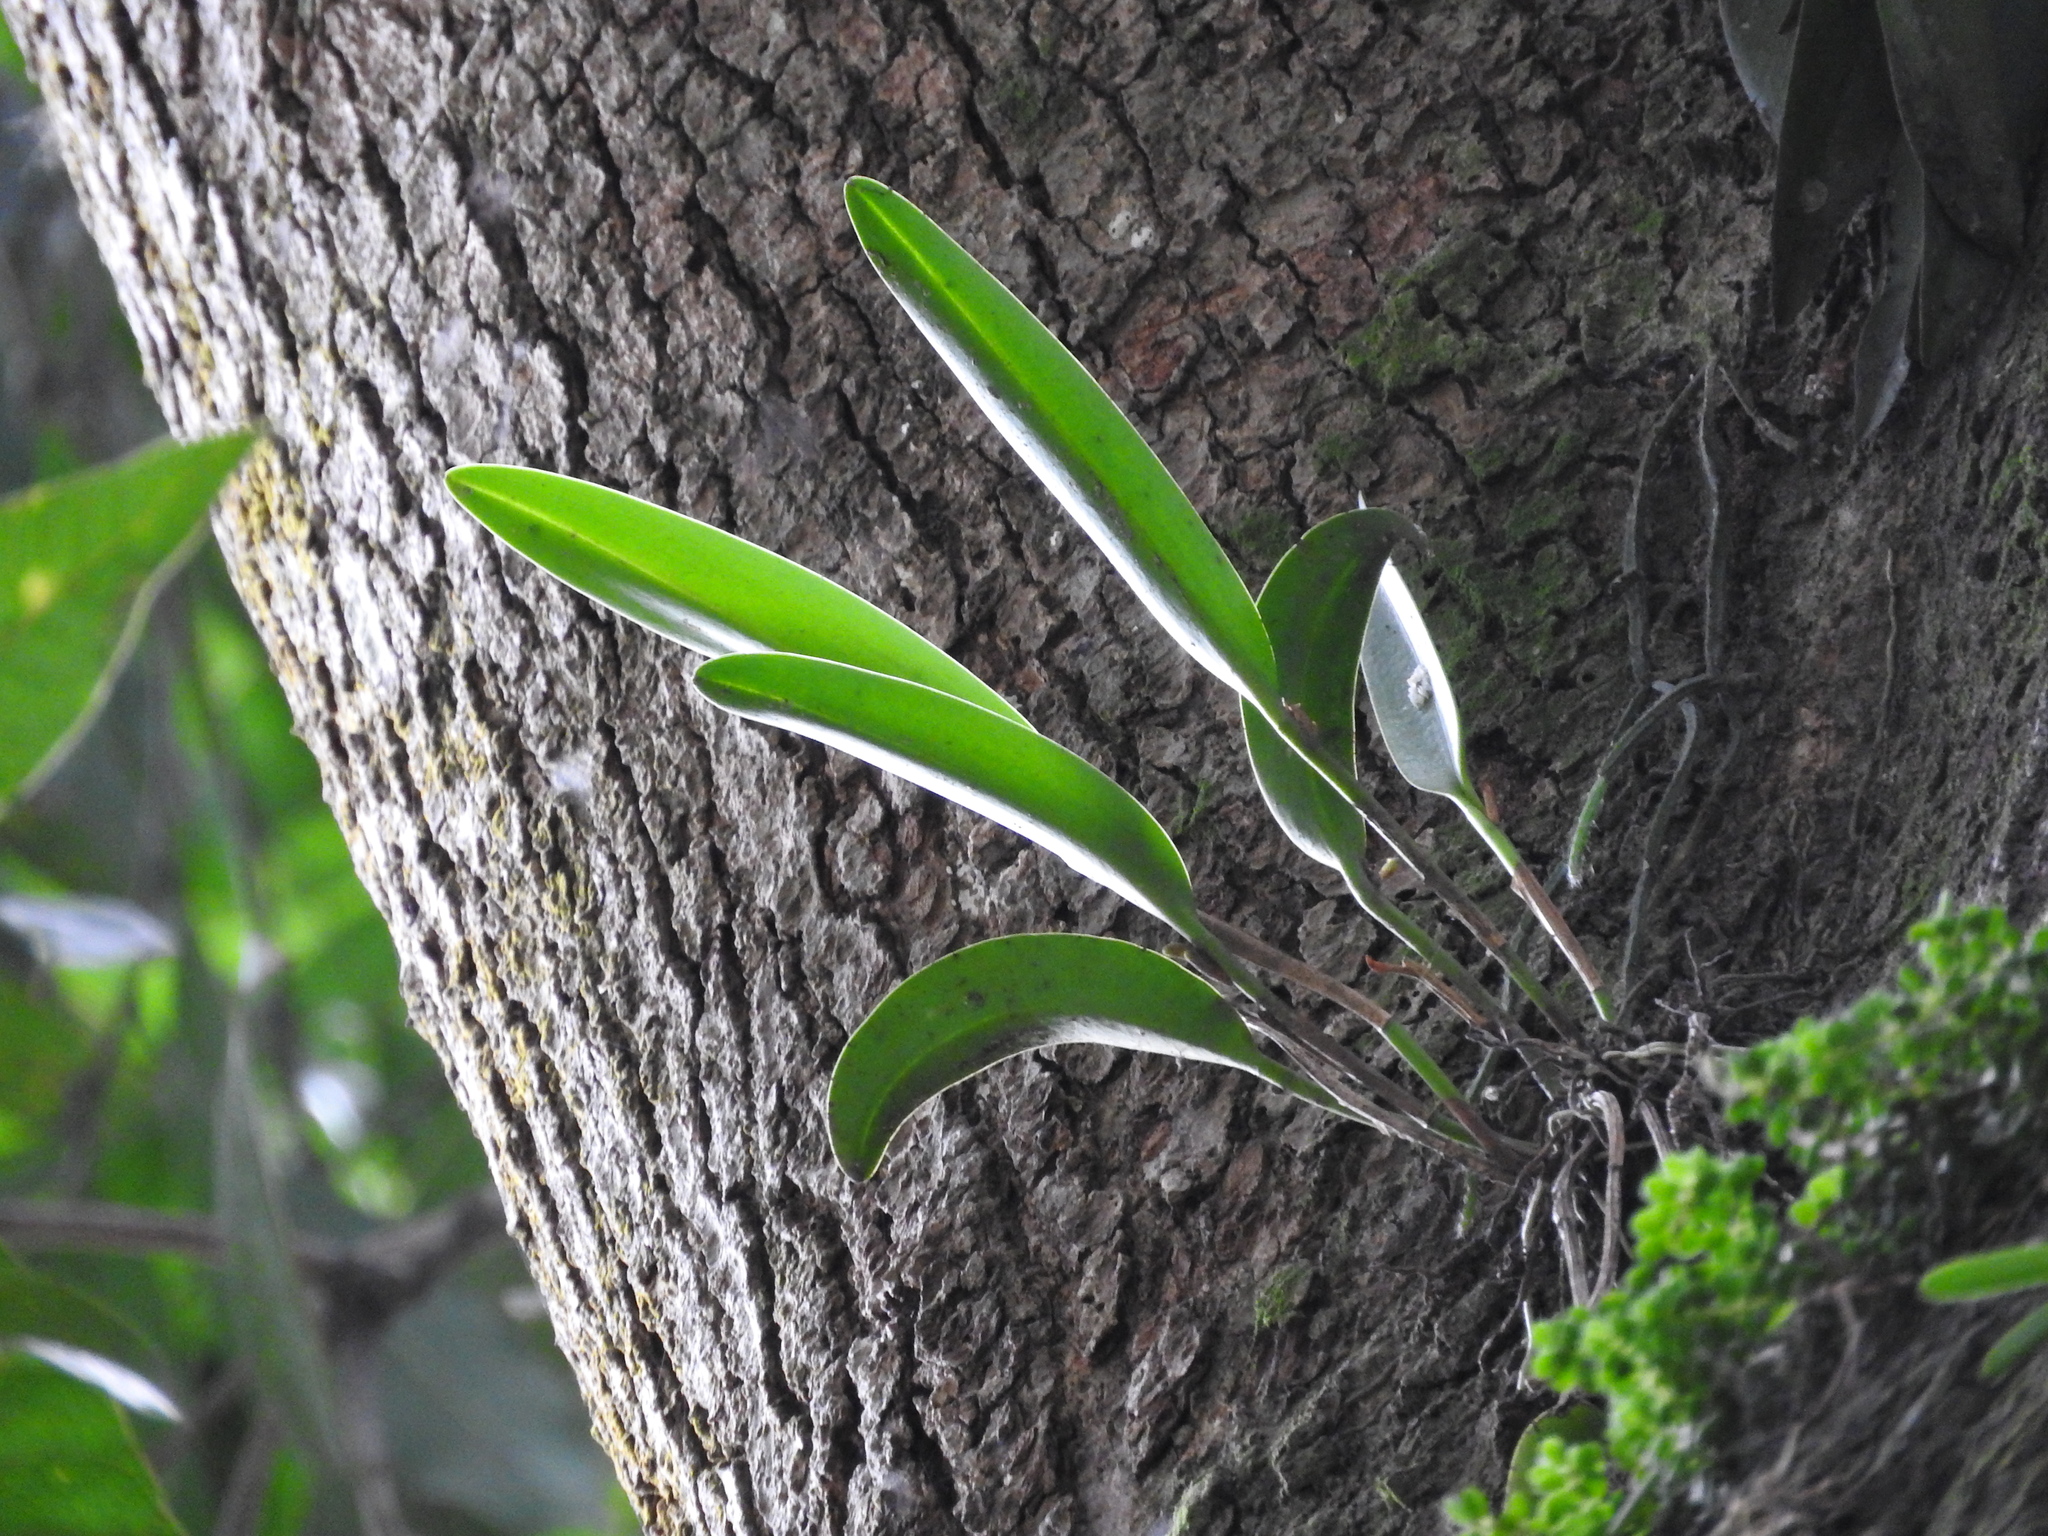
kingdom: Plantae
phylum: Tracheophyta
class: Liliopsida
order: Asparagales
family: Orchidaceae
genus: Restrepiella
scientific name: Restrepiella ophiocephala
